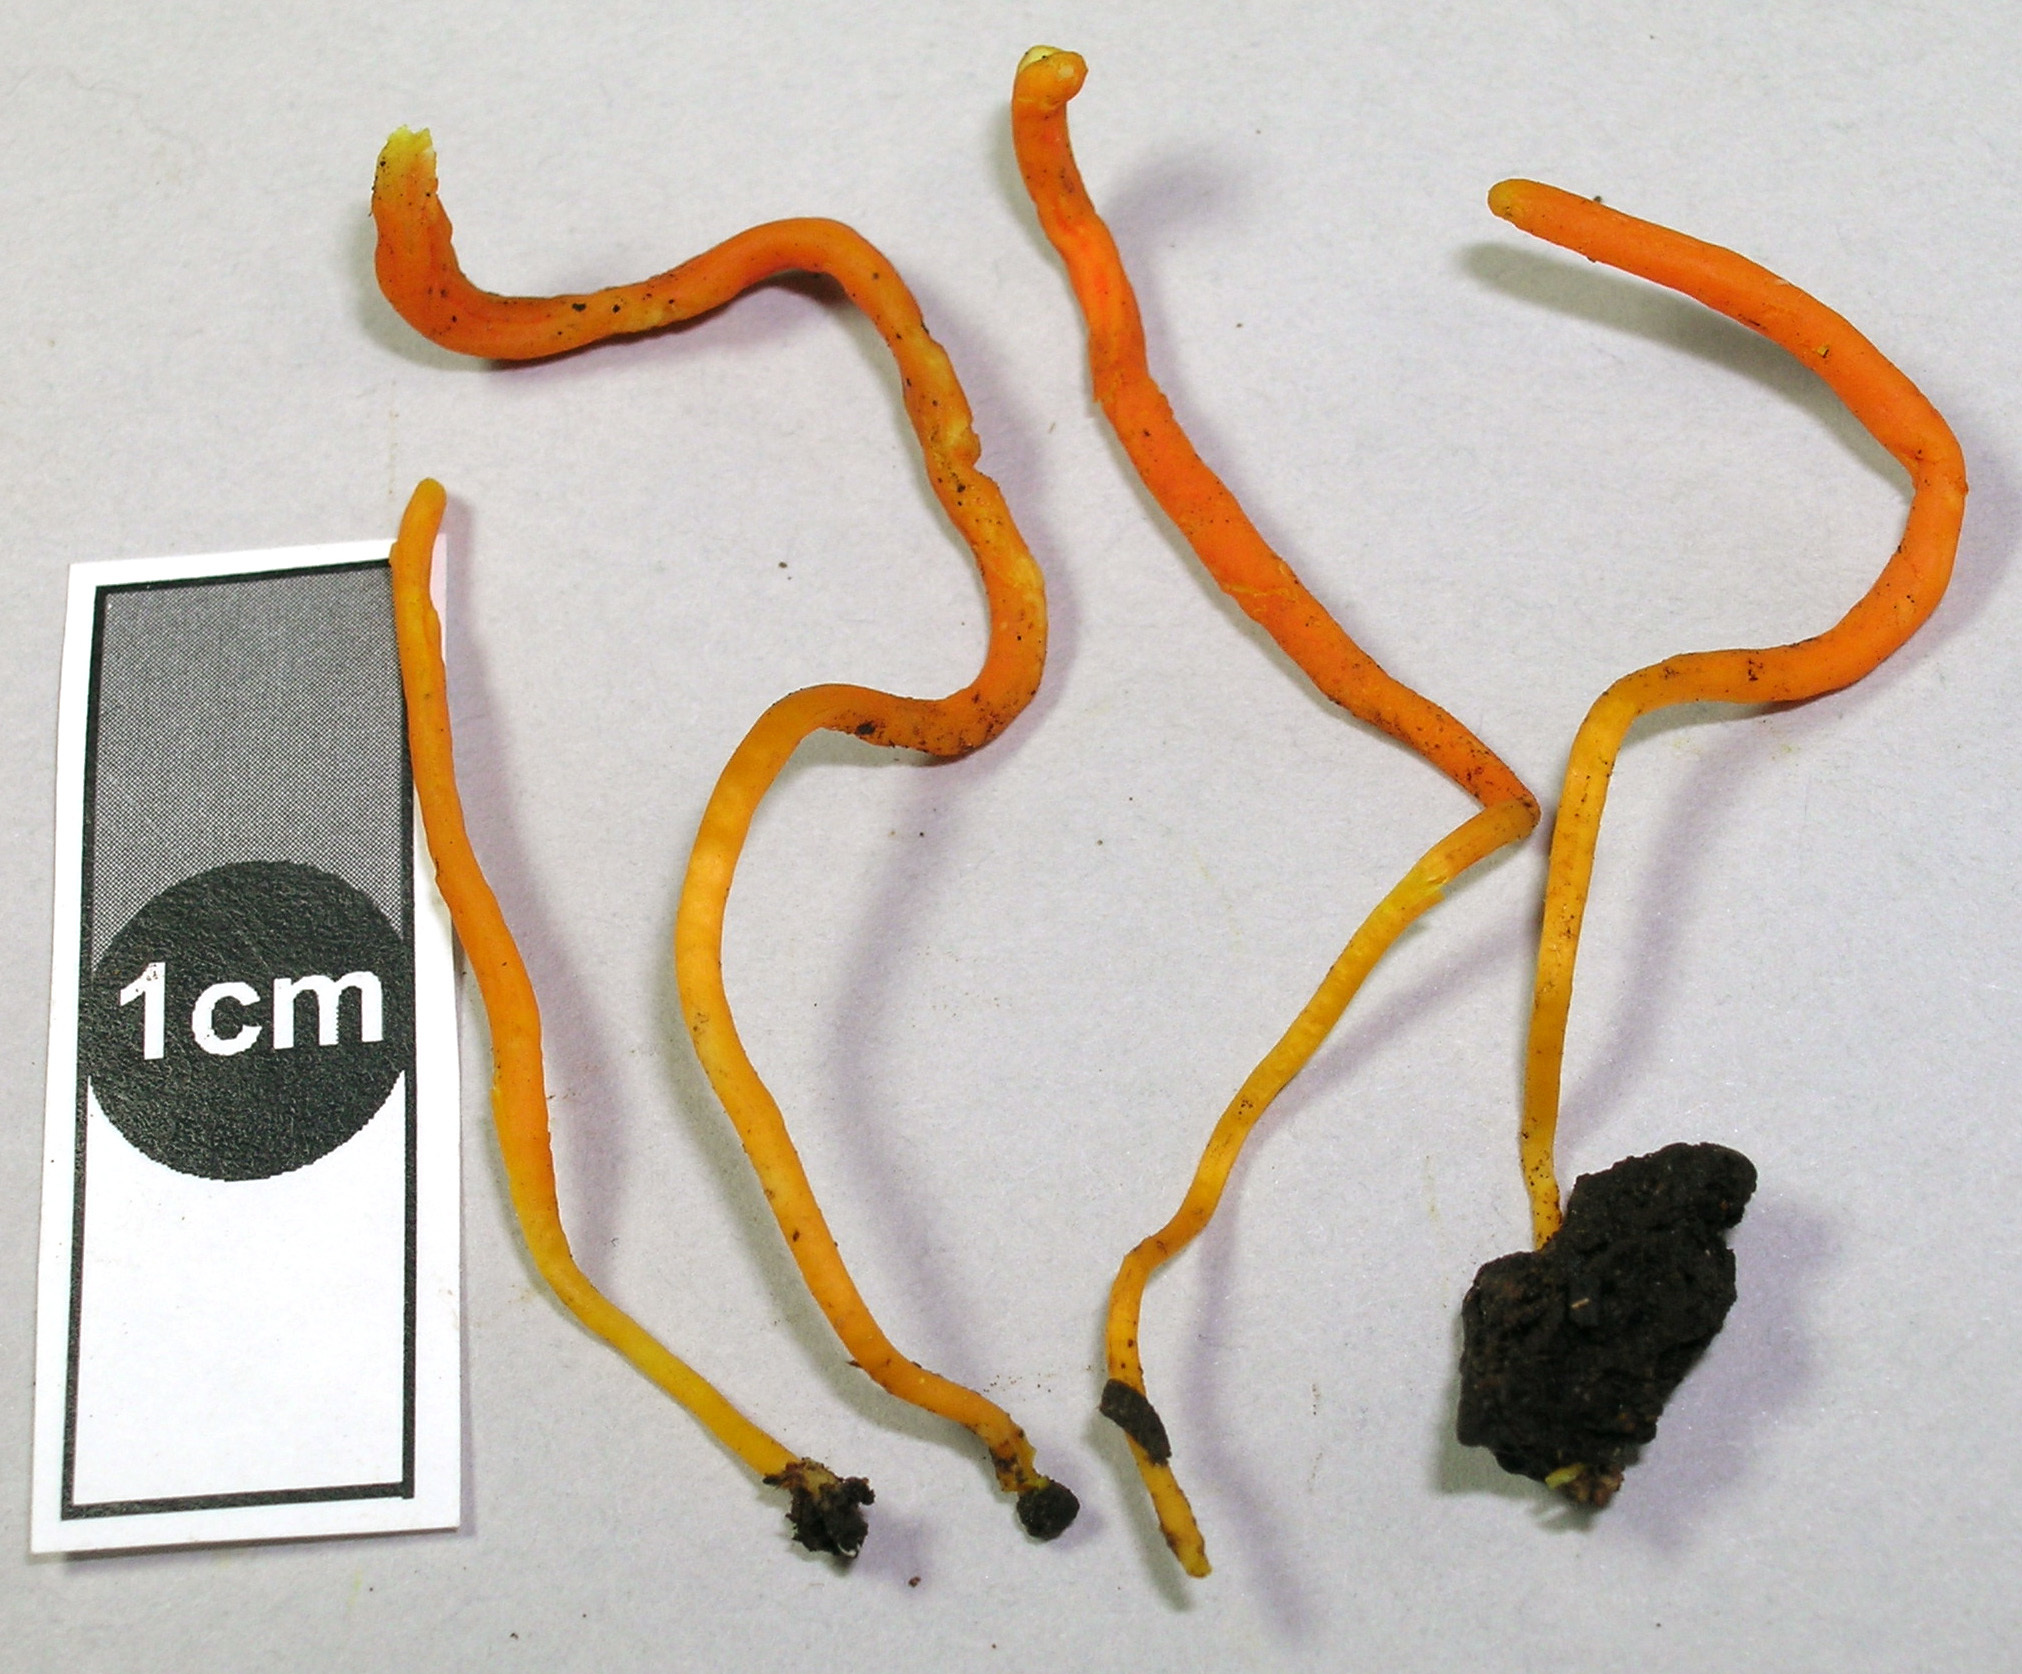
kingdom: Fungi
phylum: Basidiomycota
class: Agaricomycetes
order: Agaricales
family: Clavariaceae
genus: Clavulinopsis
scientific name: Clavulinopsis
